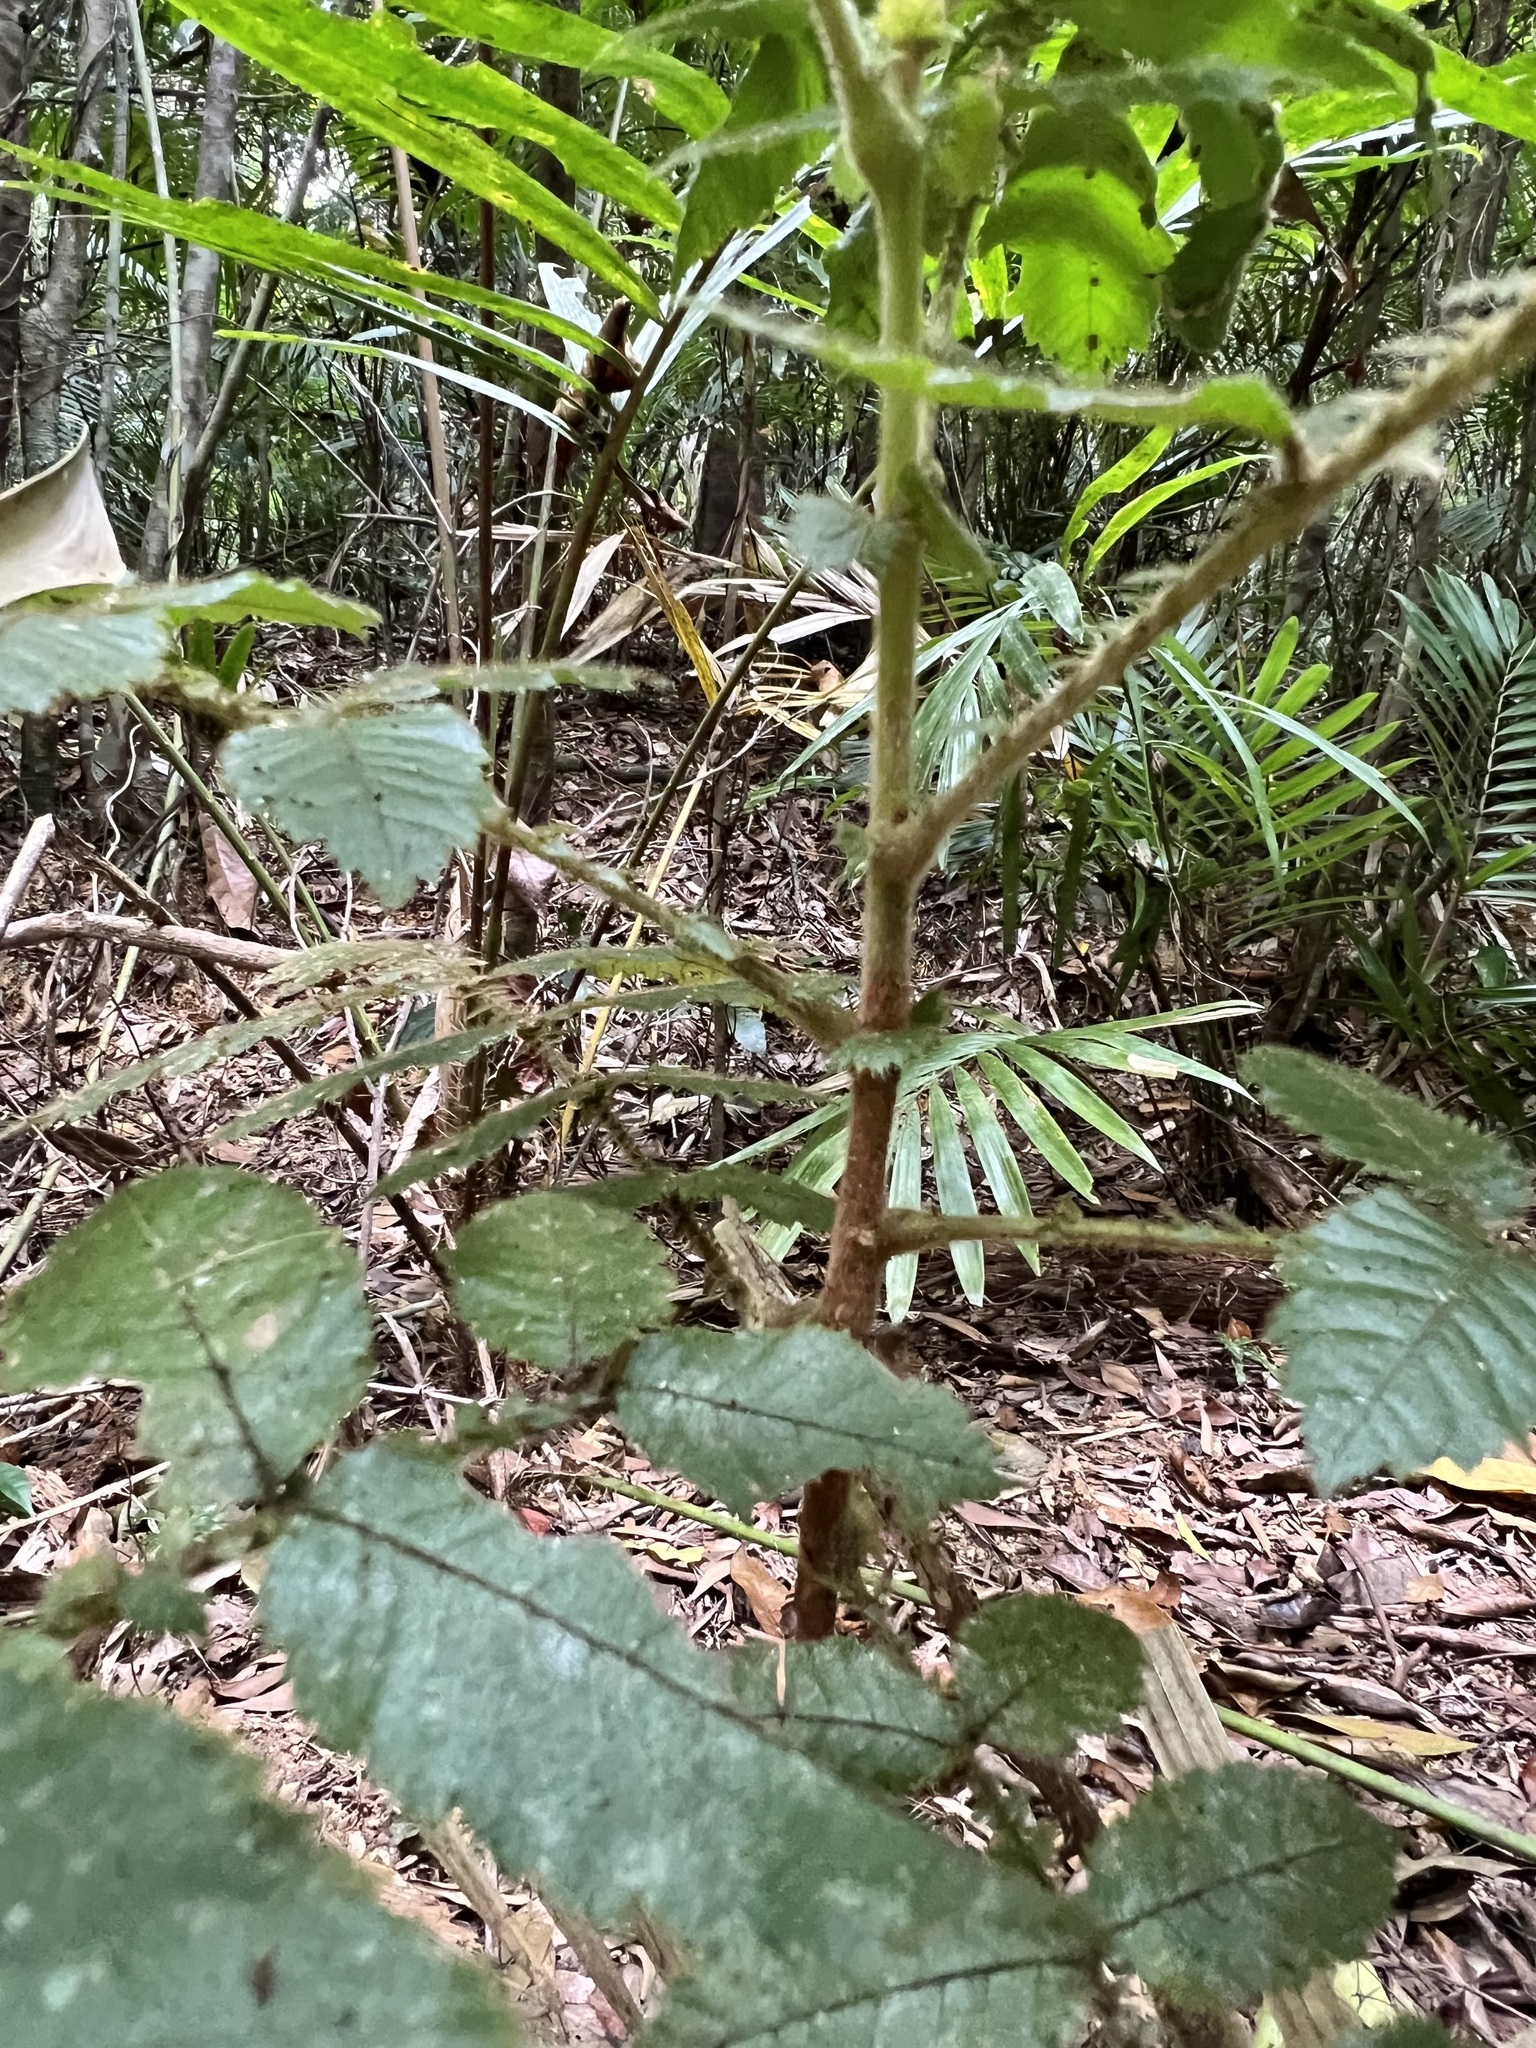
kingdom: Plantae
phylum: Tracheophyta
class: Magnoliopsida
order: Oxalidales
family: Cunoniaceae
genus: Davidsonia
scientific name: Davidsonia pruriens
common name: Do-rog
